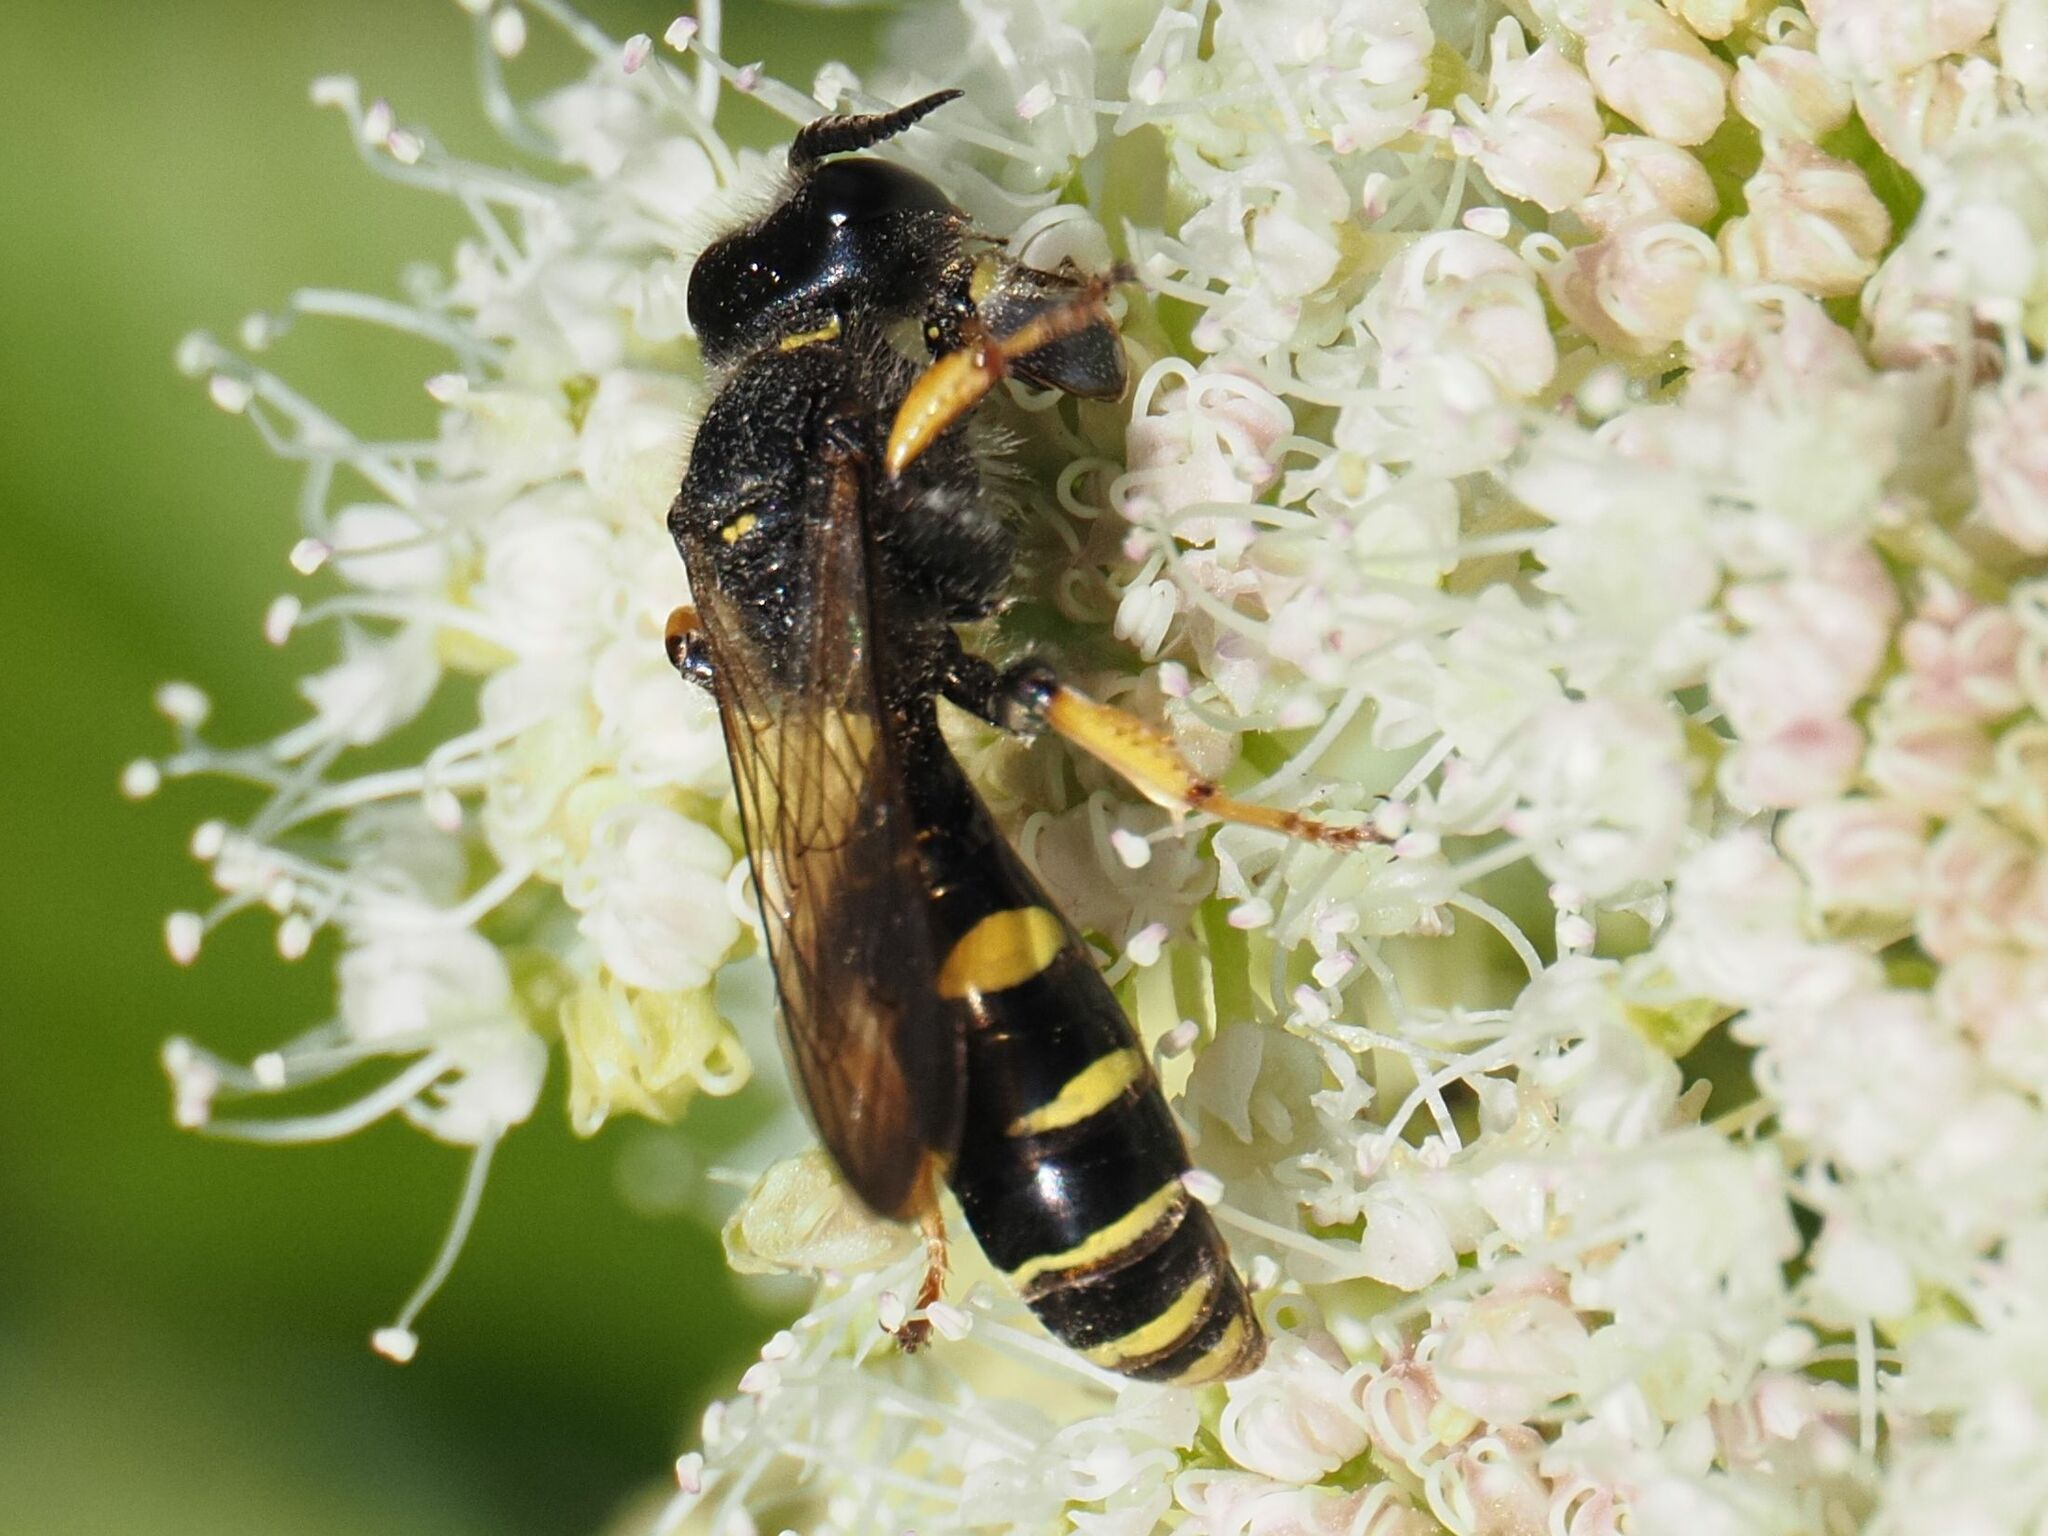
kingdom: Animalia
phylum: Arthropoda
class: Insecta
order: Hymenoptera
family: Crabronidae
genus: Crabro
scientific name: Crabro cribrarius
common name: Slender bodied digger wasp
